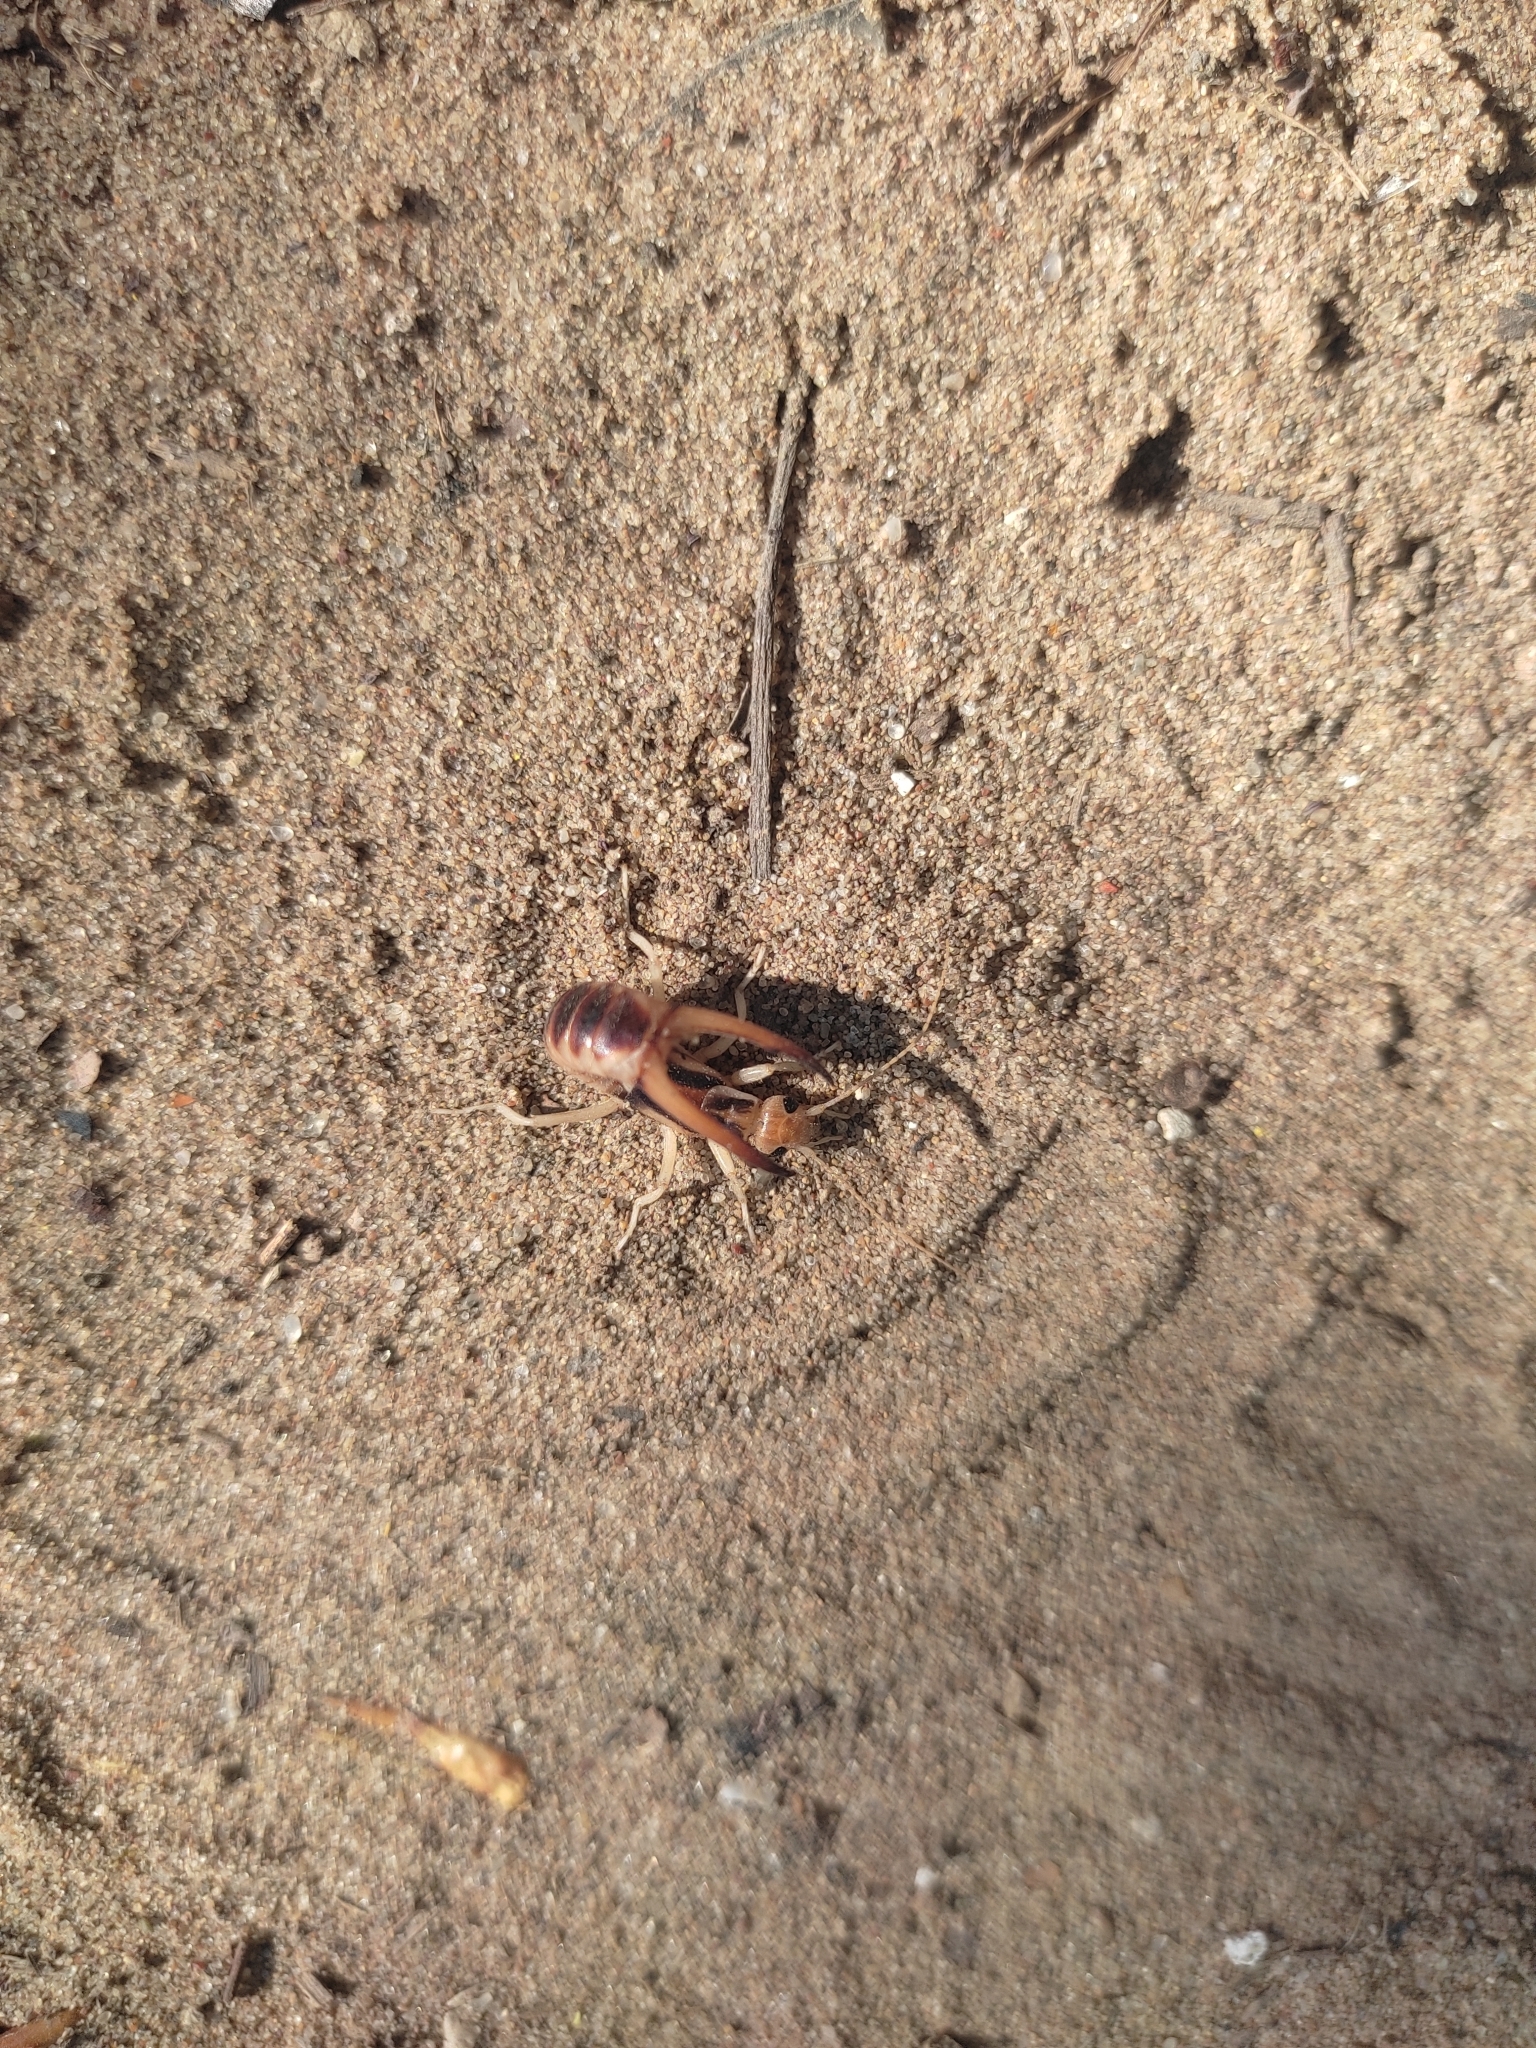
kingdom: Animalia
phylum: Arthropoda
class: Insecta
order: Dermaptera
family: Labiduridae
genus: Labidura
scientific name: Labidura riparia
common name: Striped earwig
